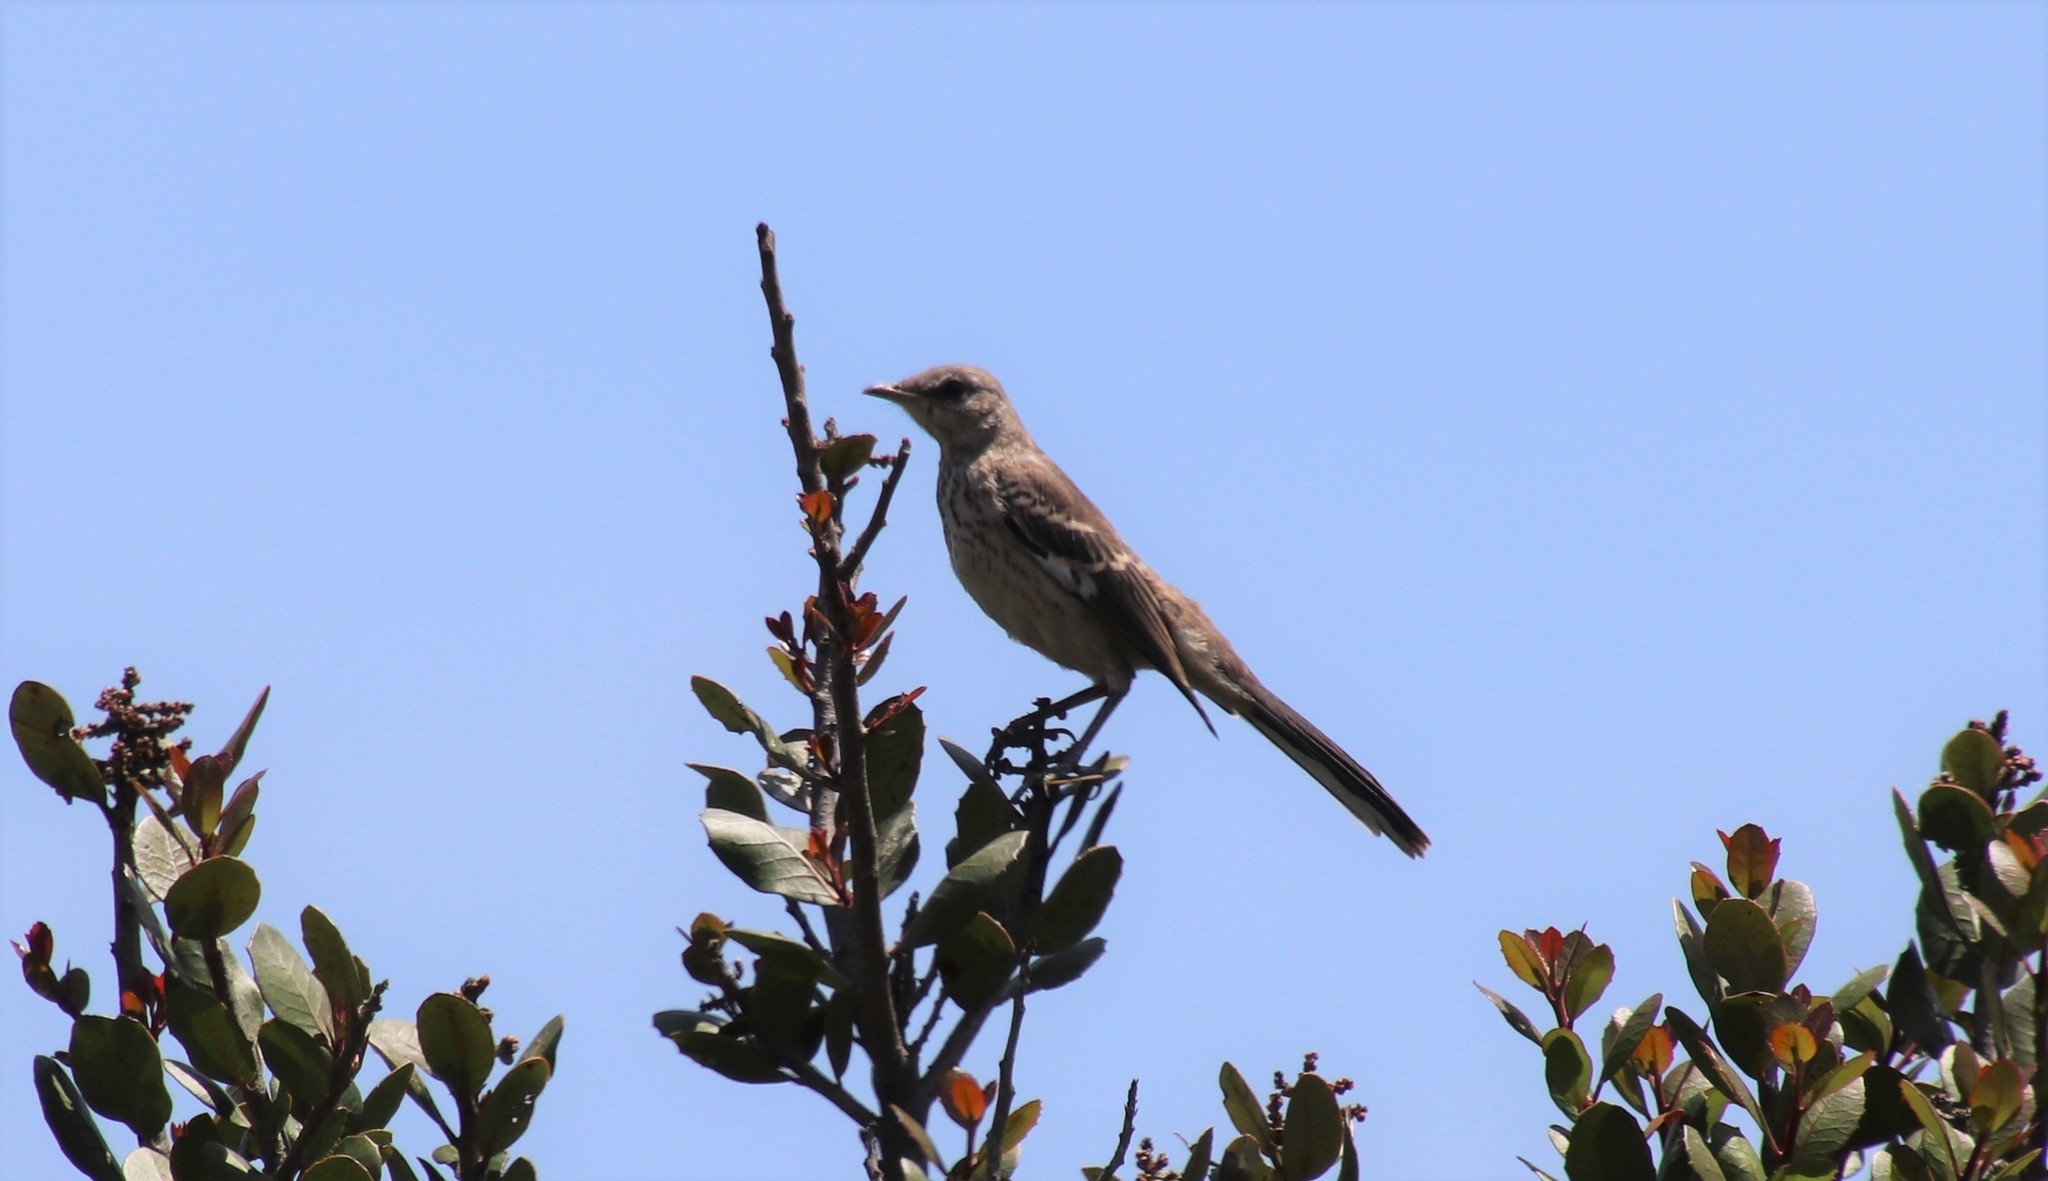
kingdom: Animalia
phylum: Chordata
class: Aves
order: Passeriformes
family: Mimidae
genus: Mimus
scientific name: Mimus polyglottos
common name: Northern mockingbird
